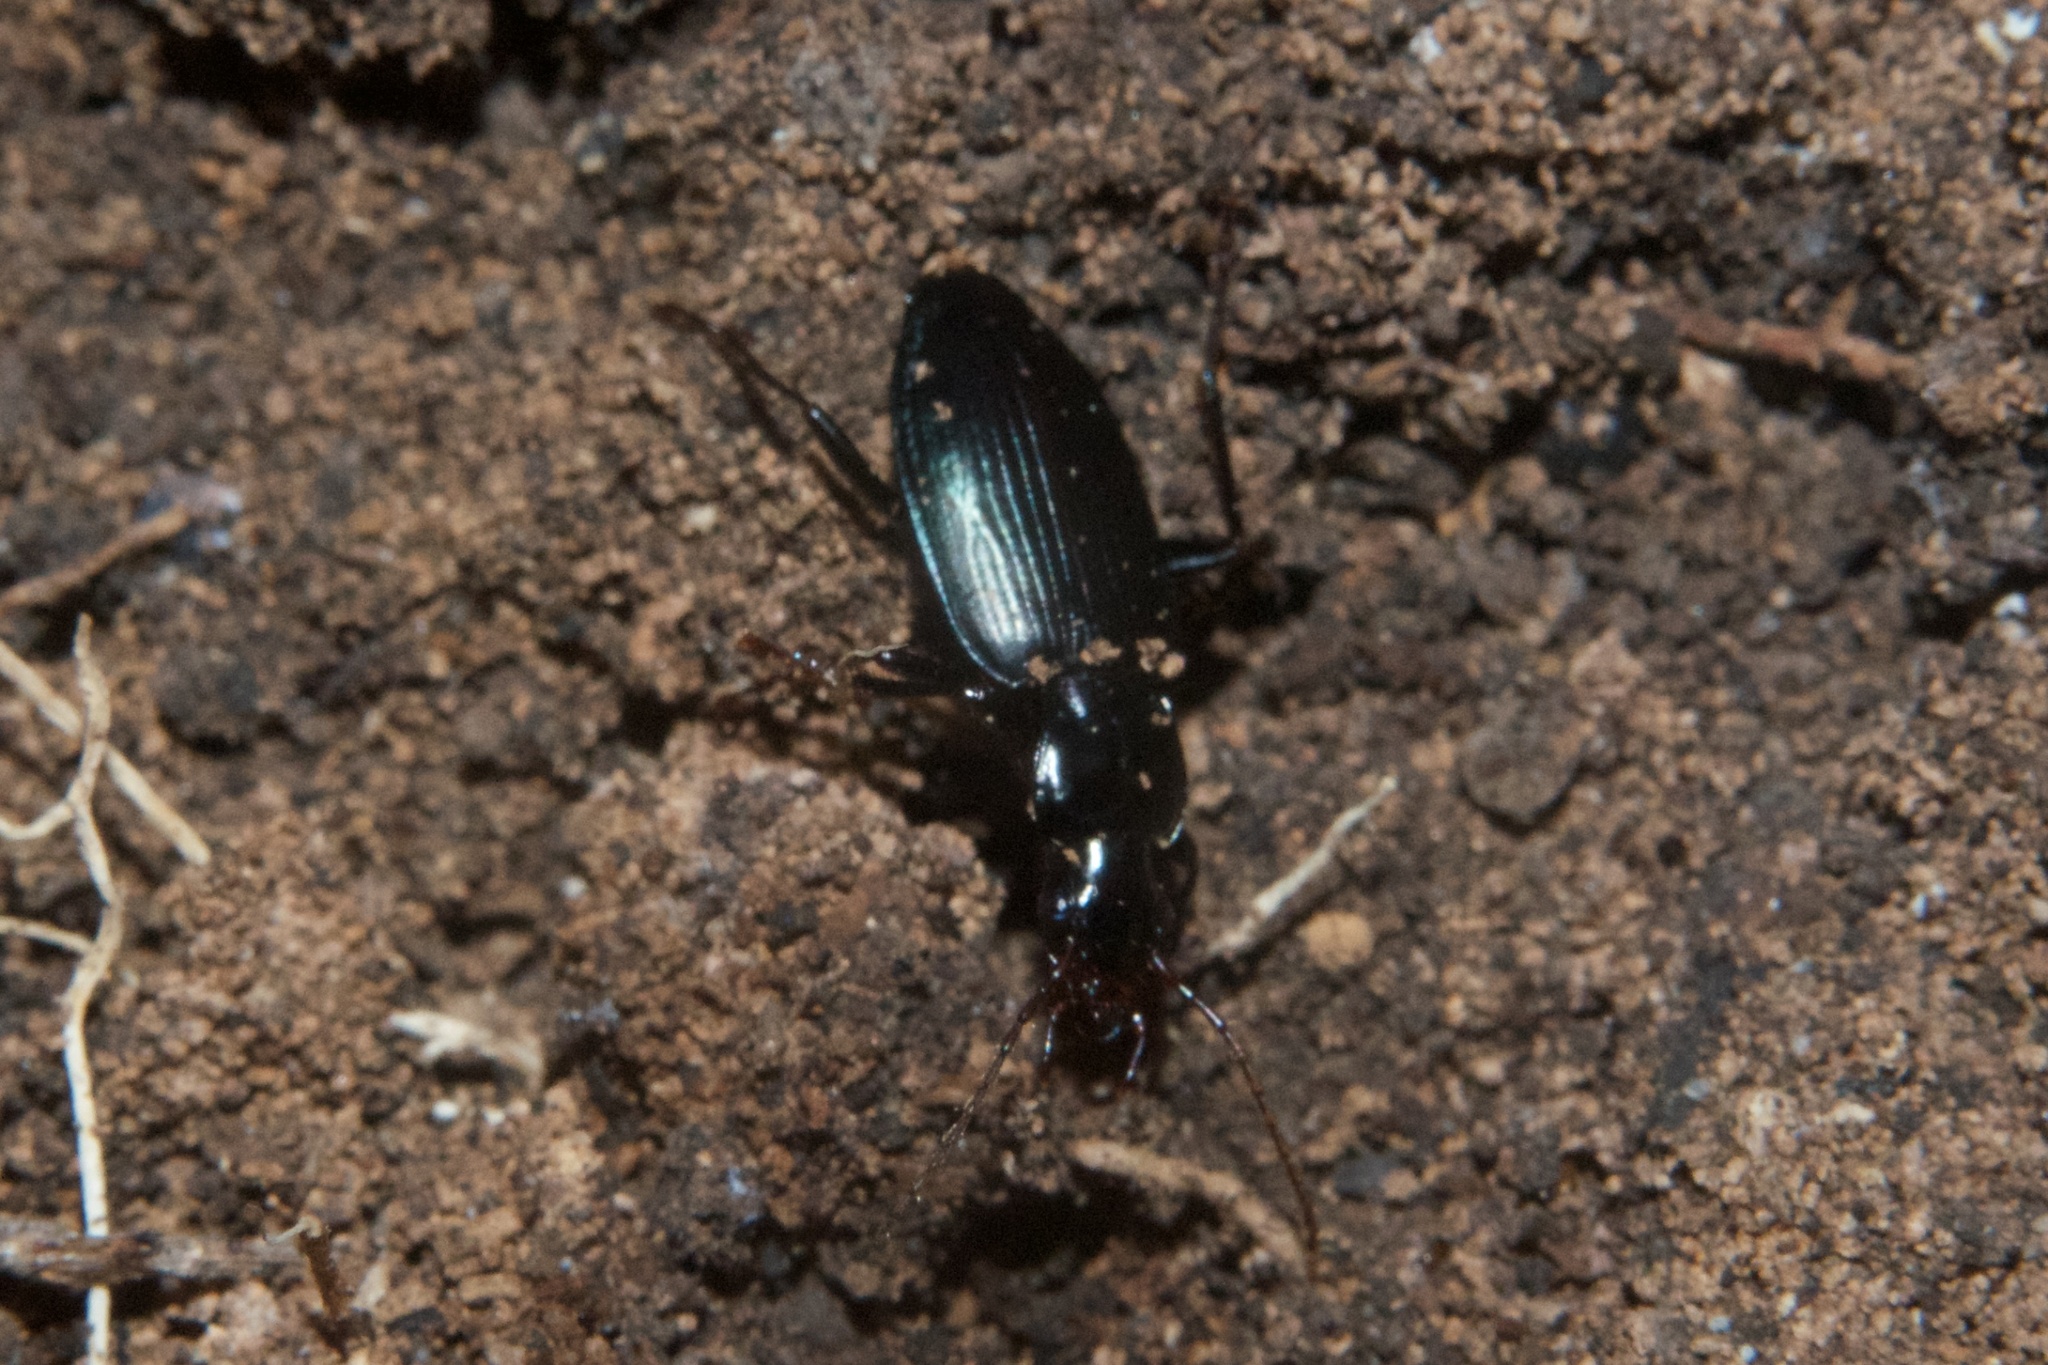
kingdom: Animalia
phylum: Arthropoda
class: Insecta
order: Coleoptera
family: Carabidae
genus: Laemostenus
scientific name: Laemostenus complanatus
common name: Cosmopolitan ground beetle
